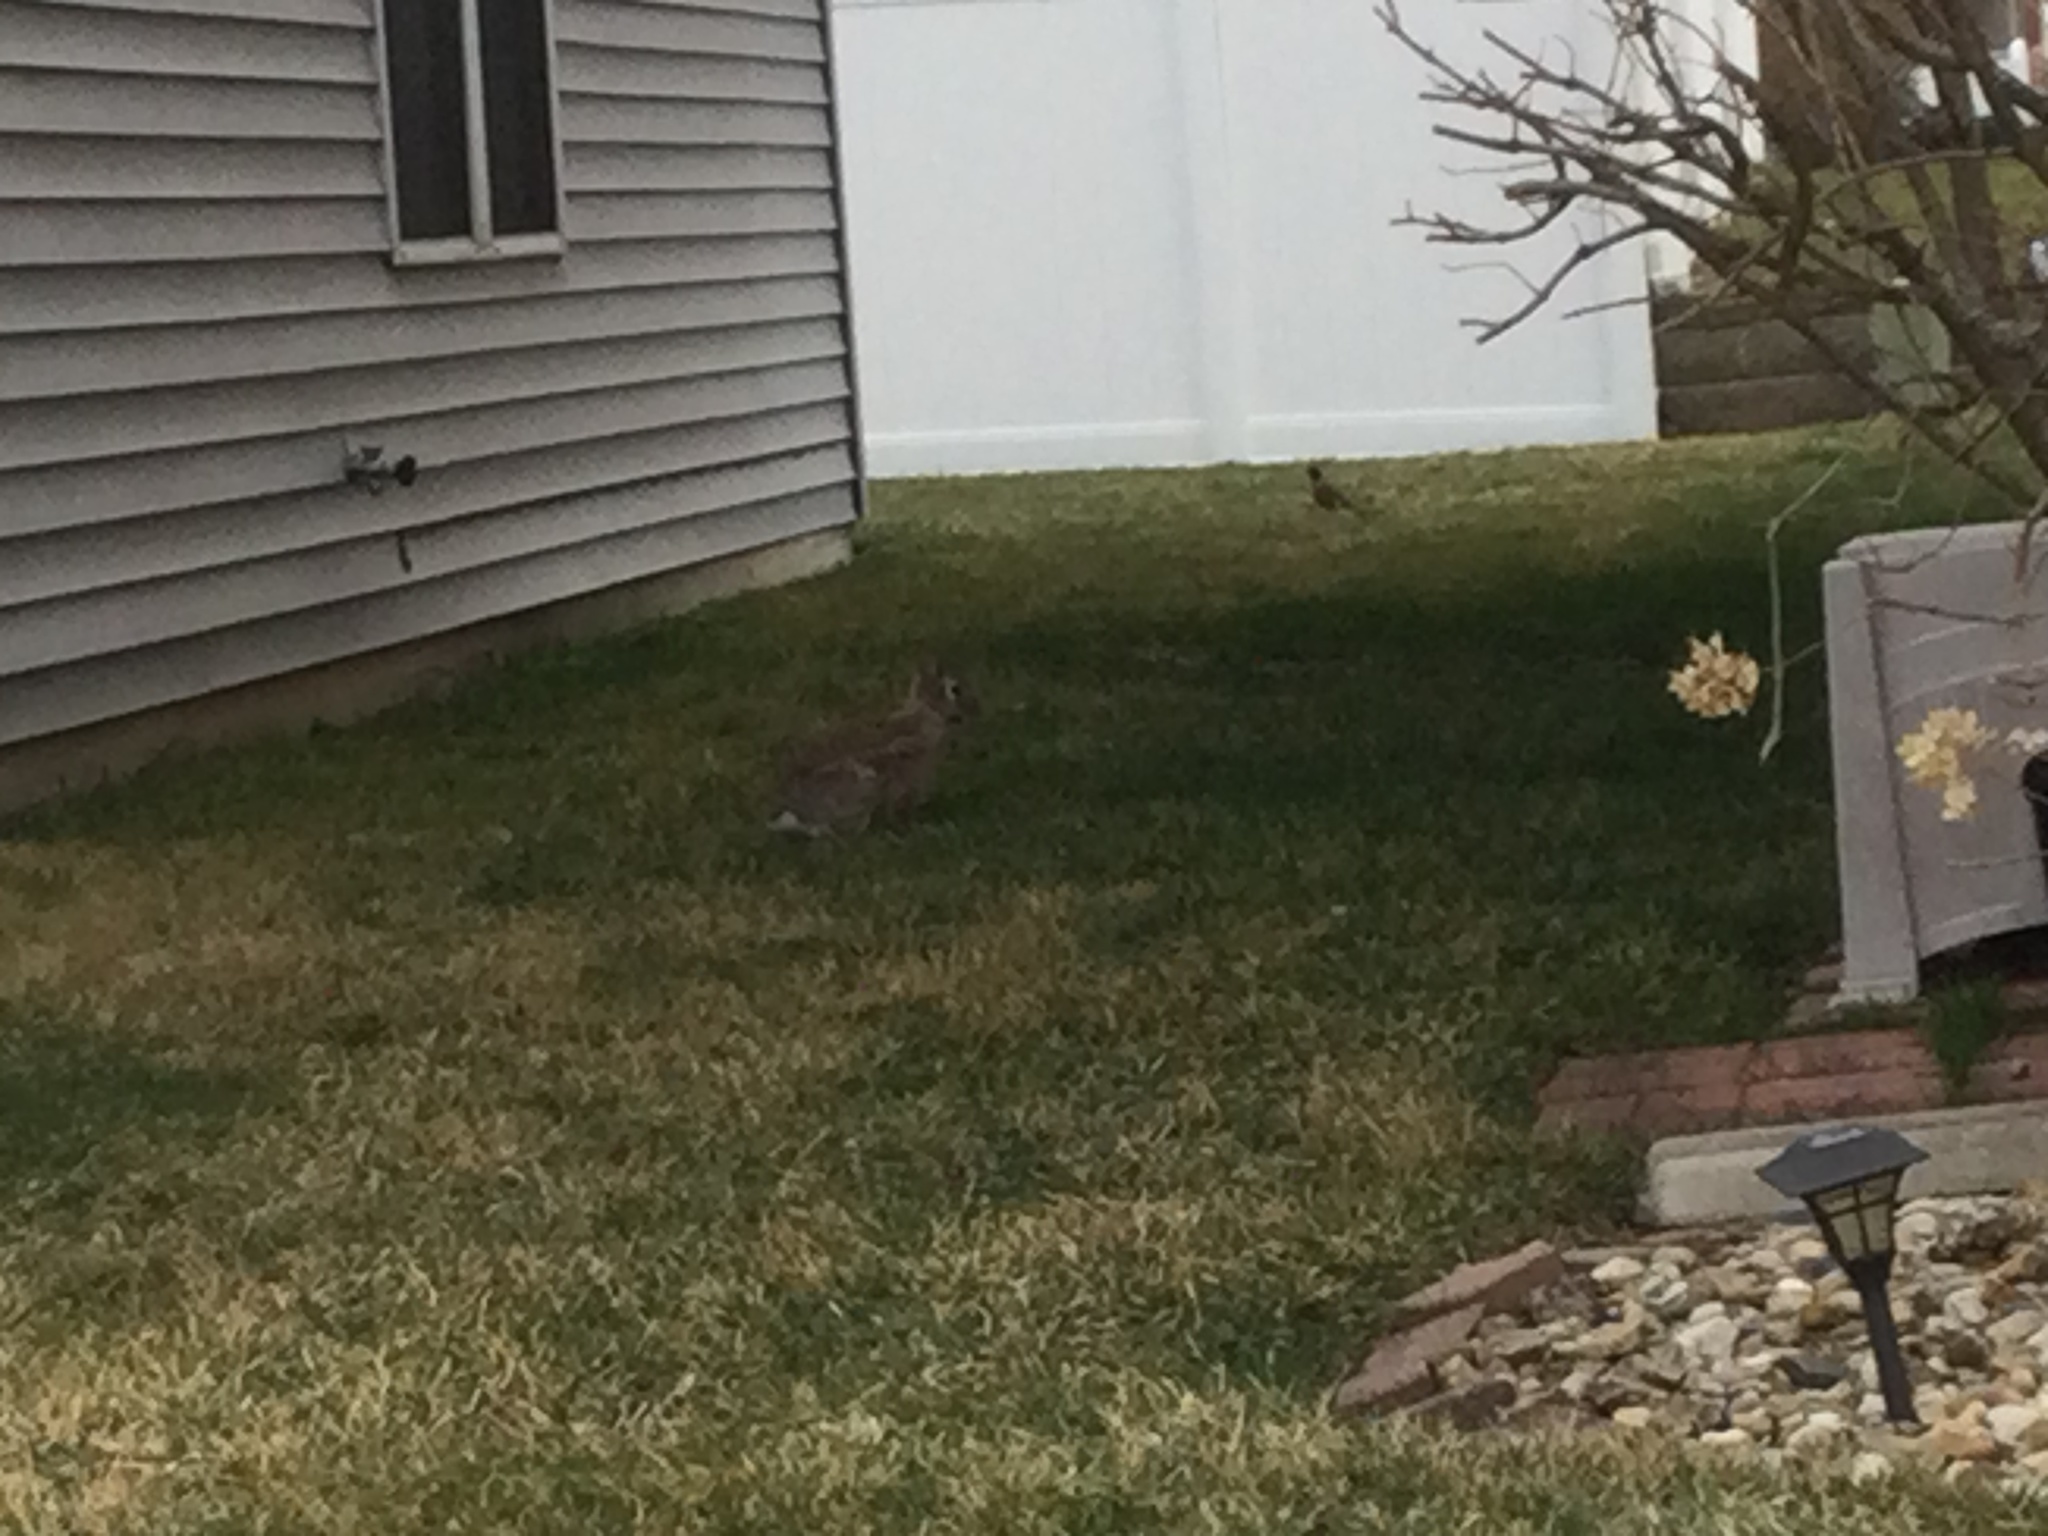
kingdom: Animalia
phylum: Chordata
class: Mammalia
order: Lagomorpha
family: Leporidae
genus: Sylvilagus
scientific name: Sylvilagus floridanus
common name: Eastern cottontail
